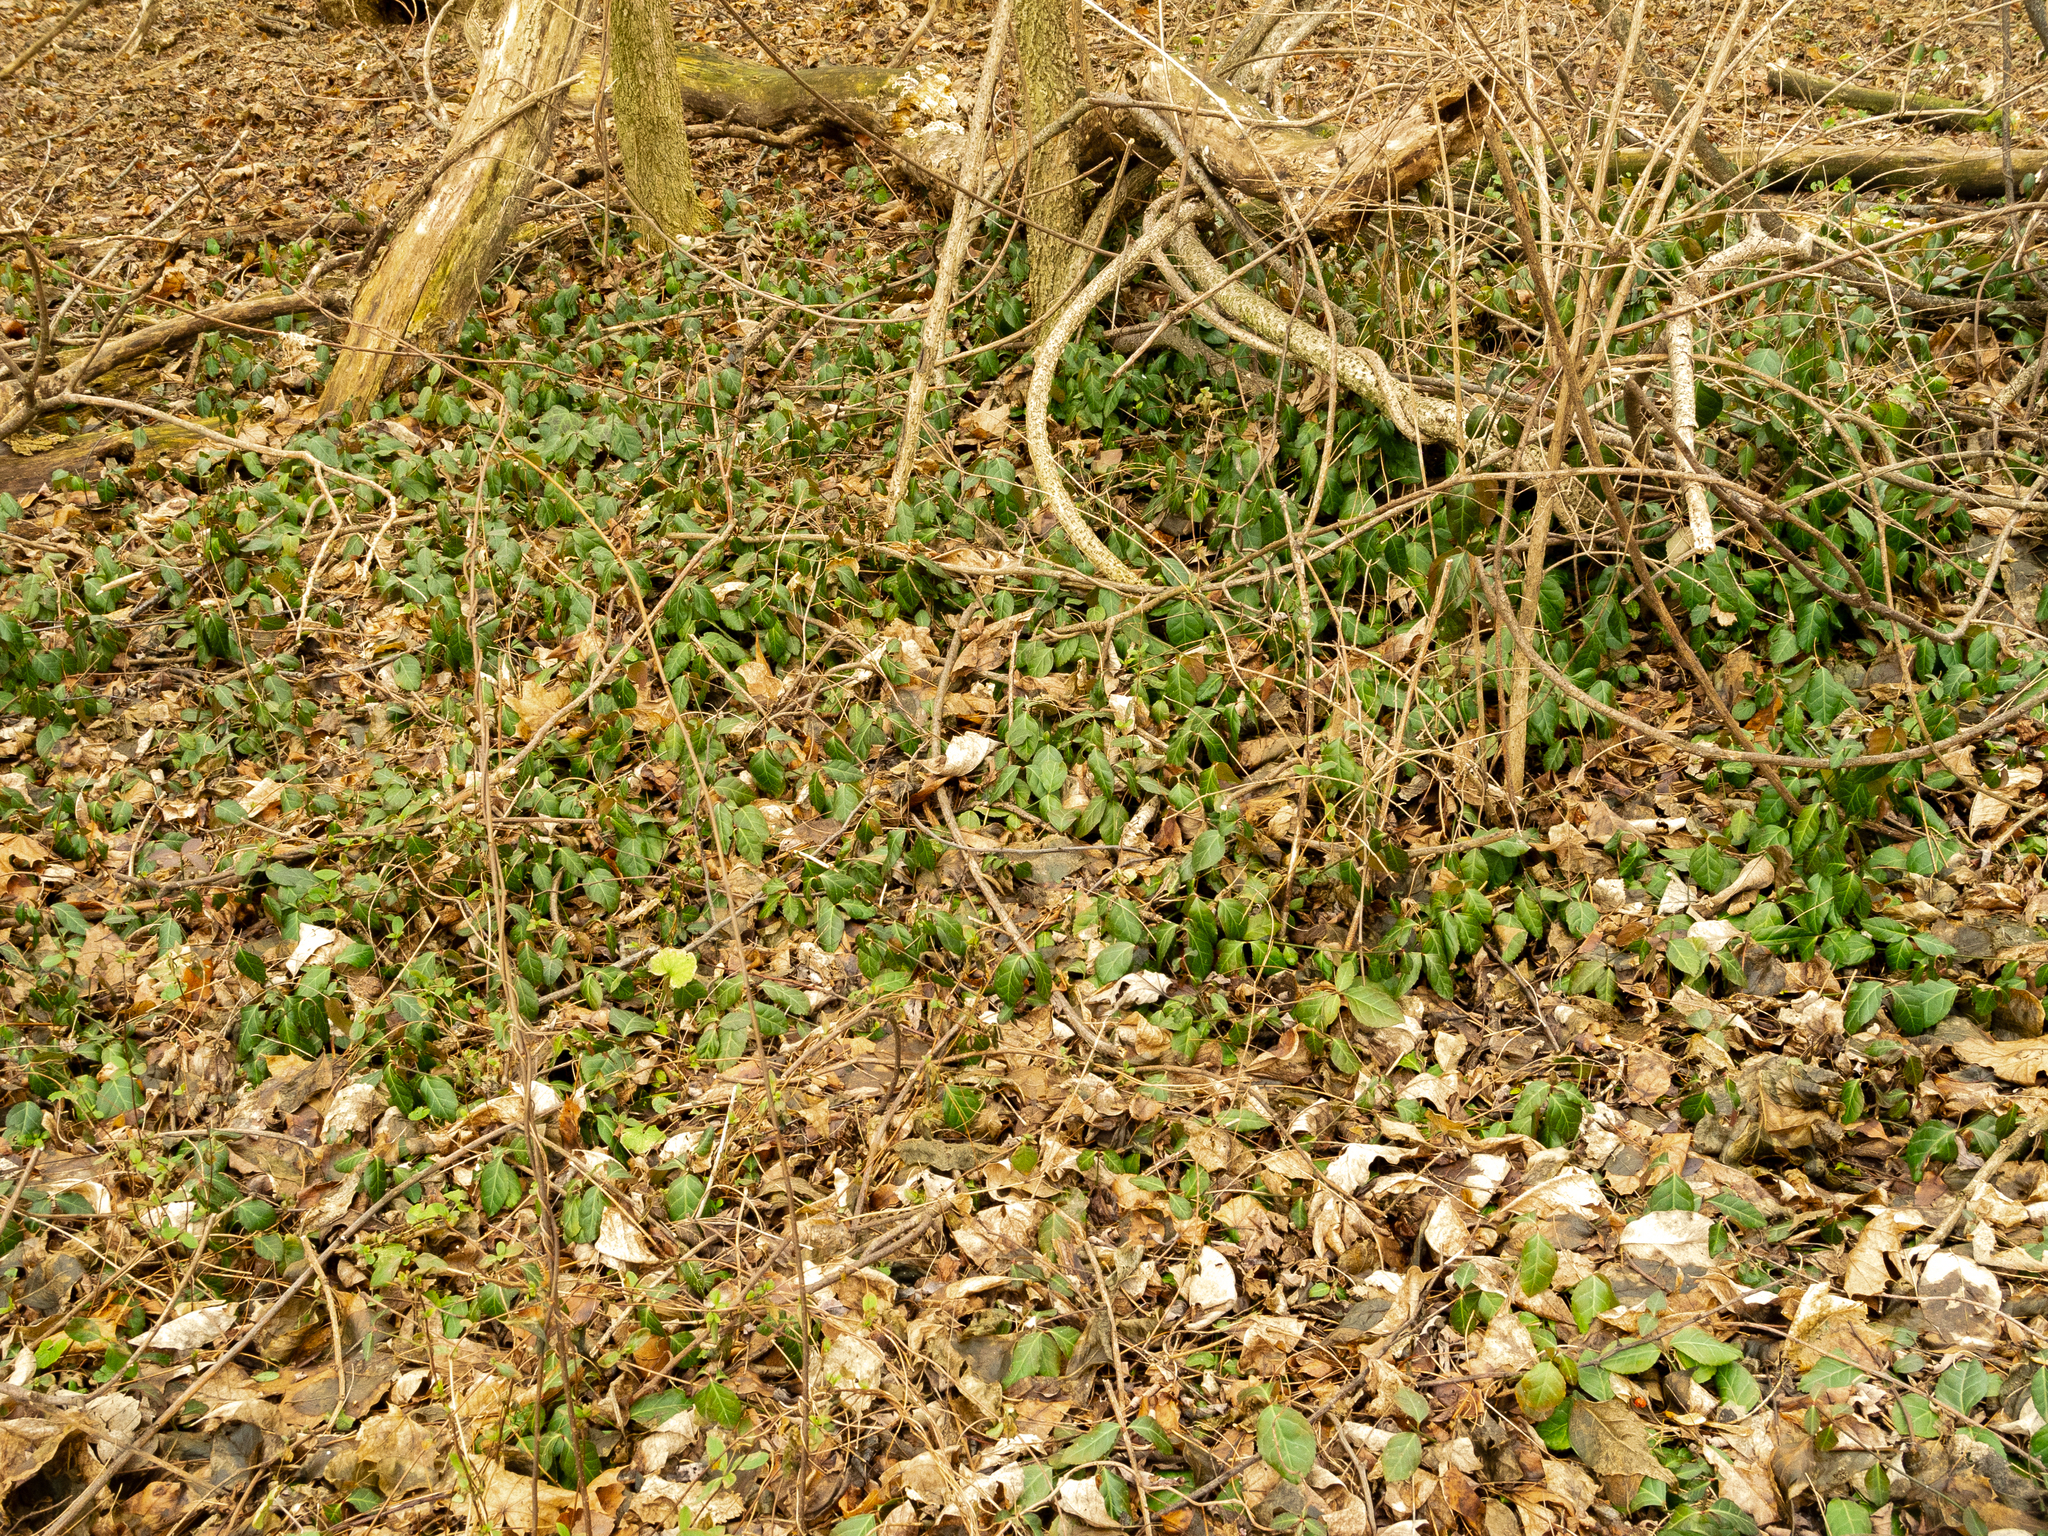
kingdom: Plantae
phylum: Tracheophyta
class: Magnoliopsida
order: Celastrales
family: Celastraceae
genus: Euonymus
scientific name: Euonymus fortunei
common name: Climbing euonymus
